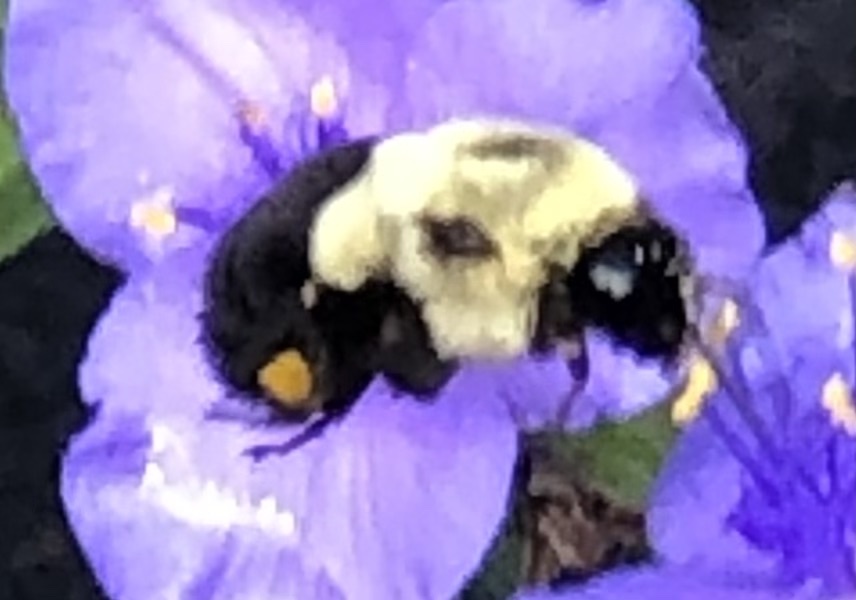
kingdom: Animalia
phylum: Arthropoda
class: Insecta
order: Hymenoptera
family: Apidae
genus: Bombus
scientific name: Bombus impatiens
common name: Common eastern bumble bee
